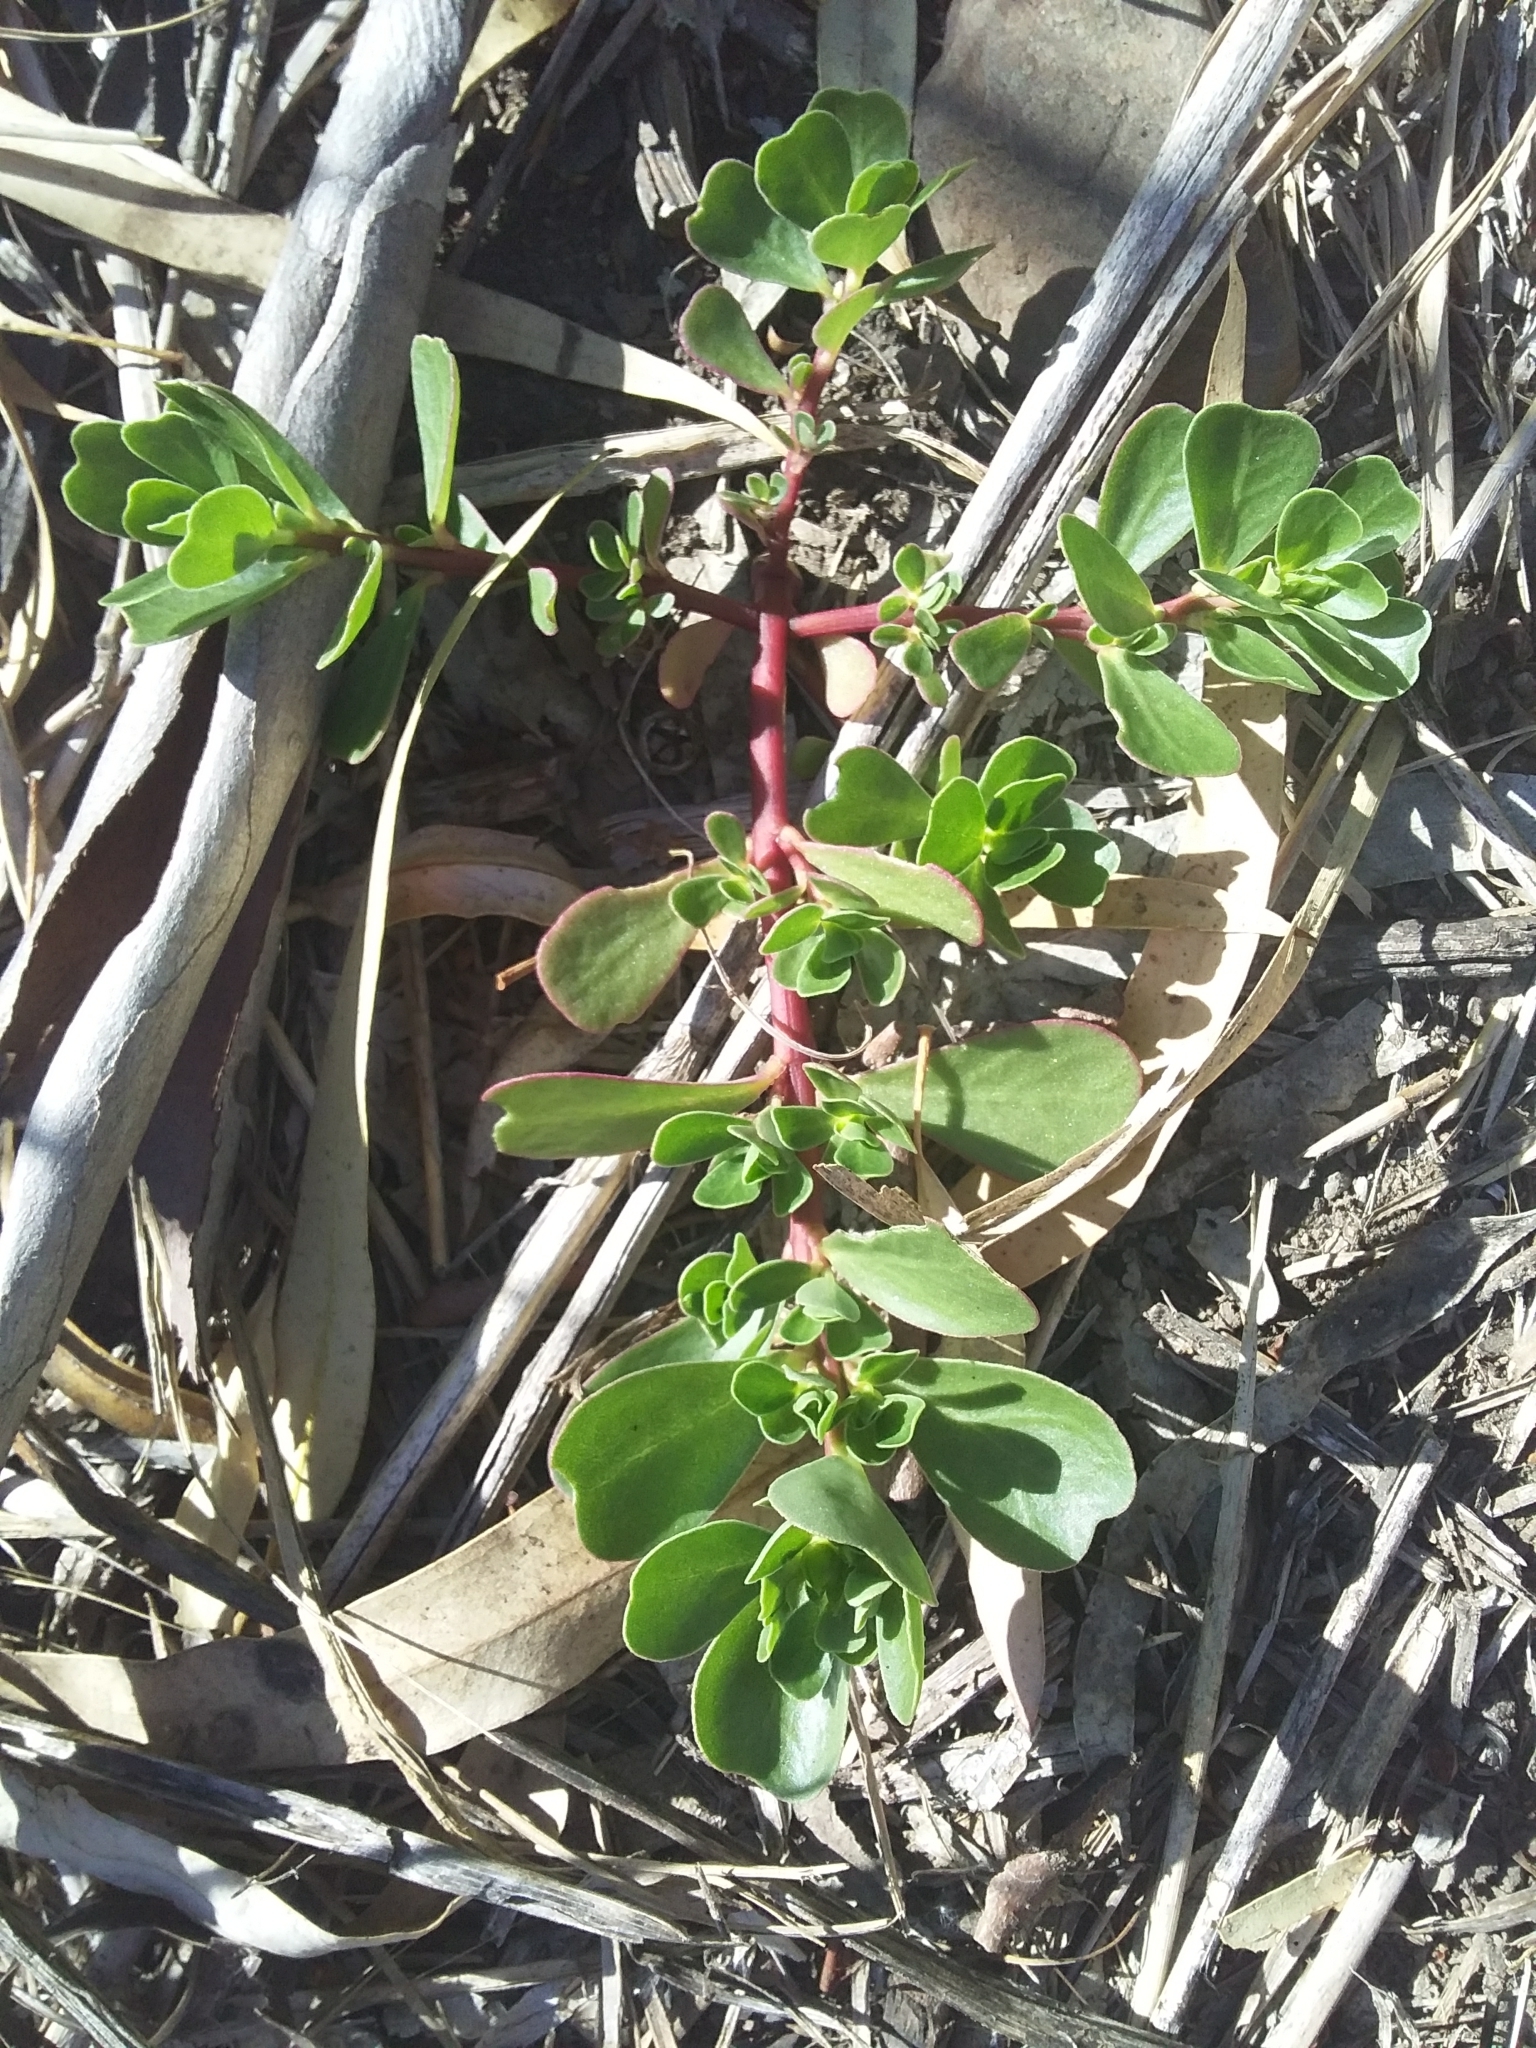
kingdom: Plantae
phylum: Tracheophyta
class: Magnoliopsida
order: Caryophyllales
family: Portulacaceae
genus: Portulaca
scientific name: Portulaca oleracea
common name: Common purslane
